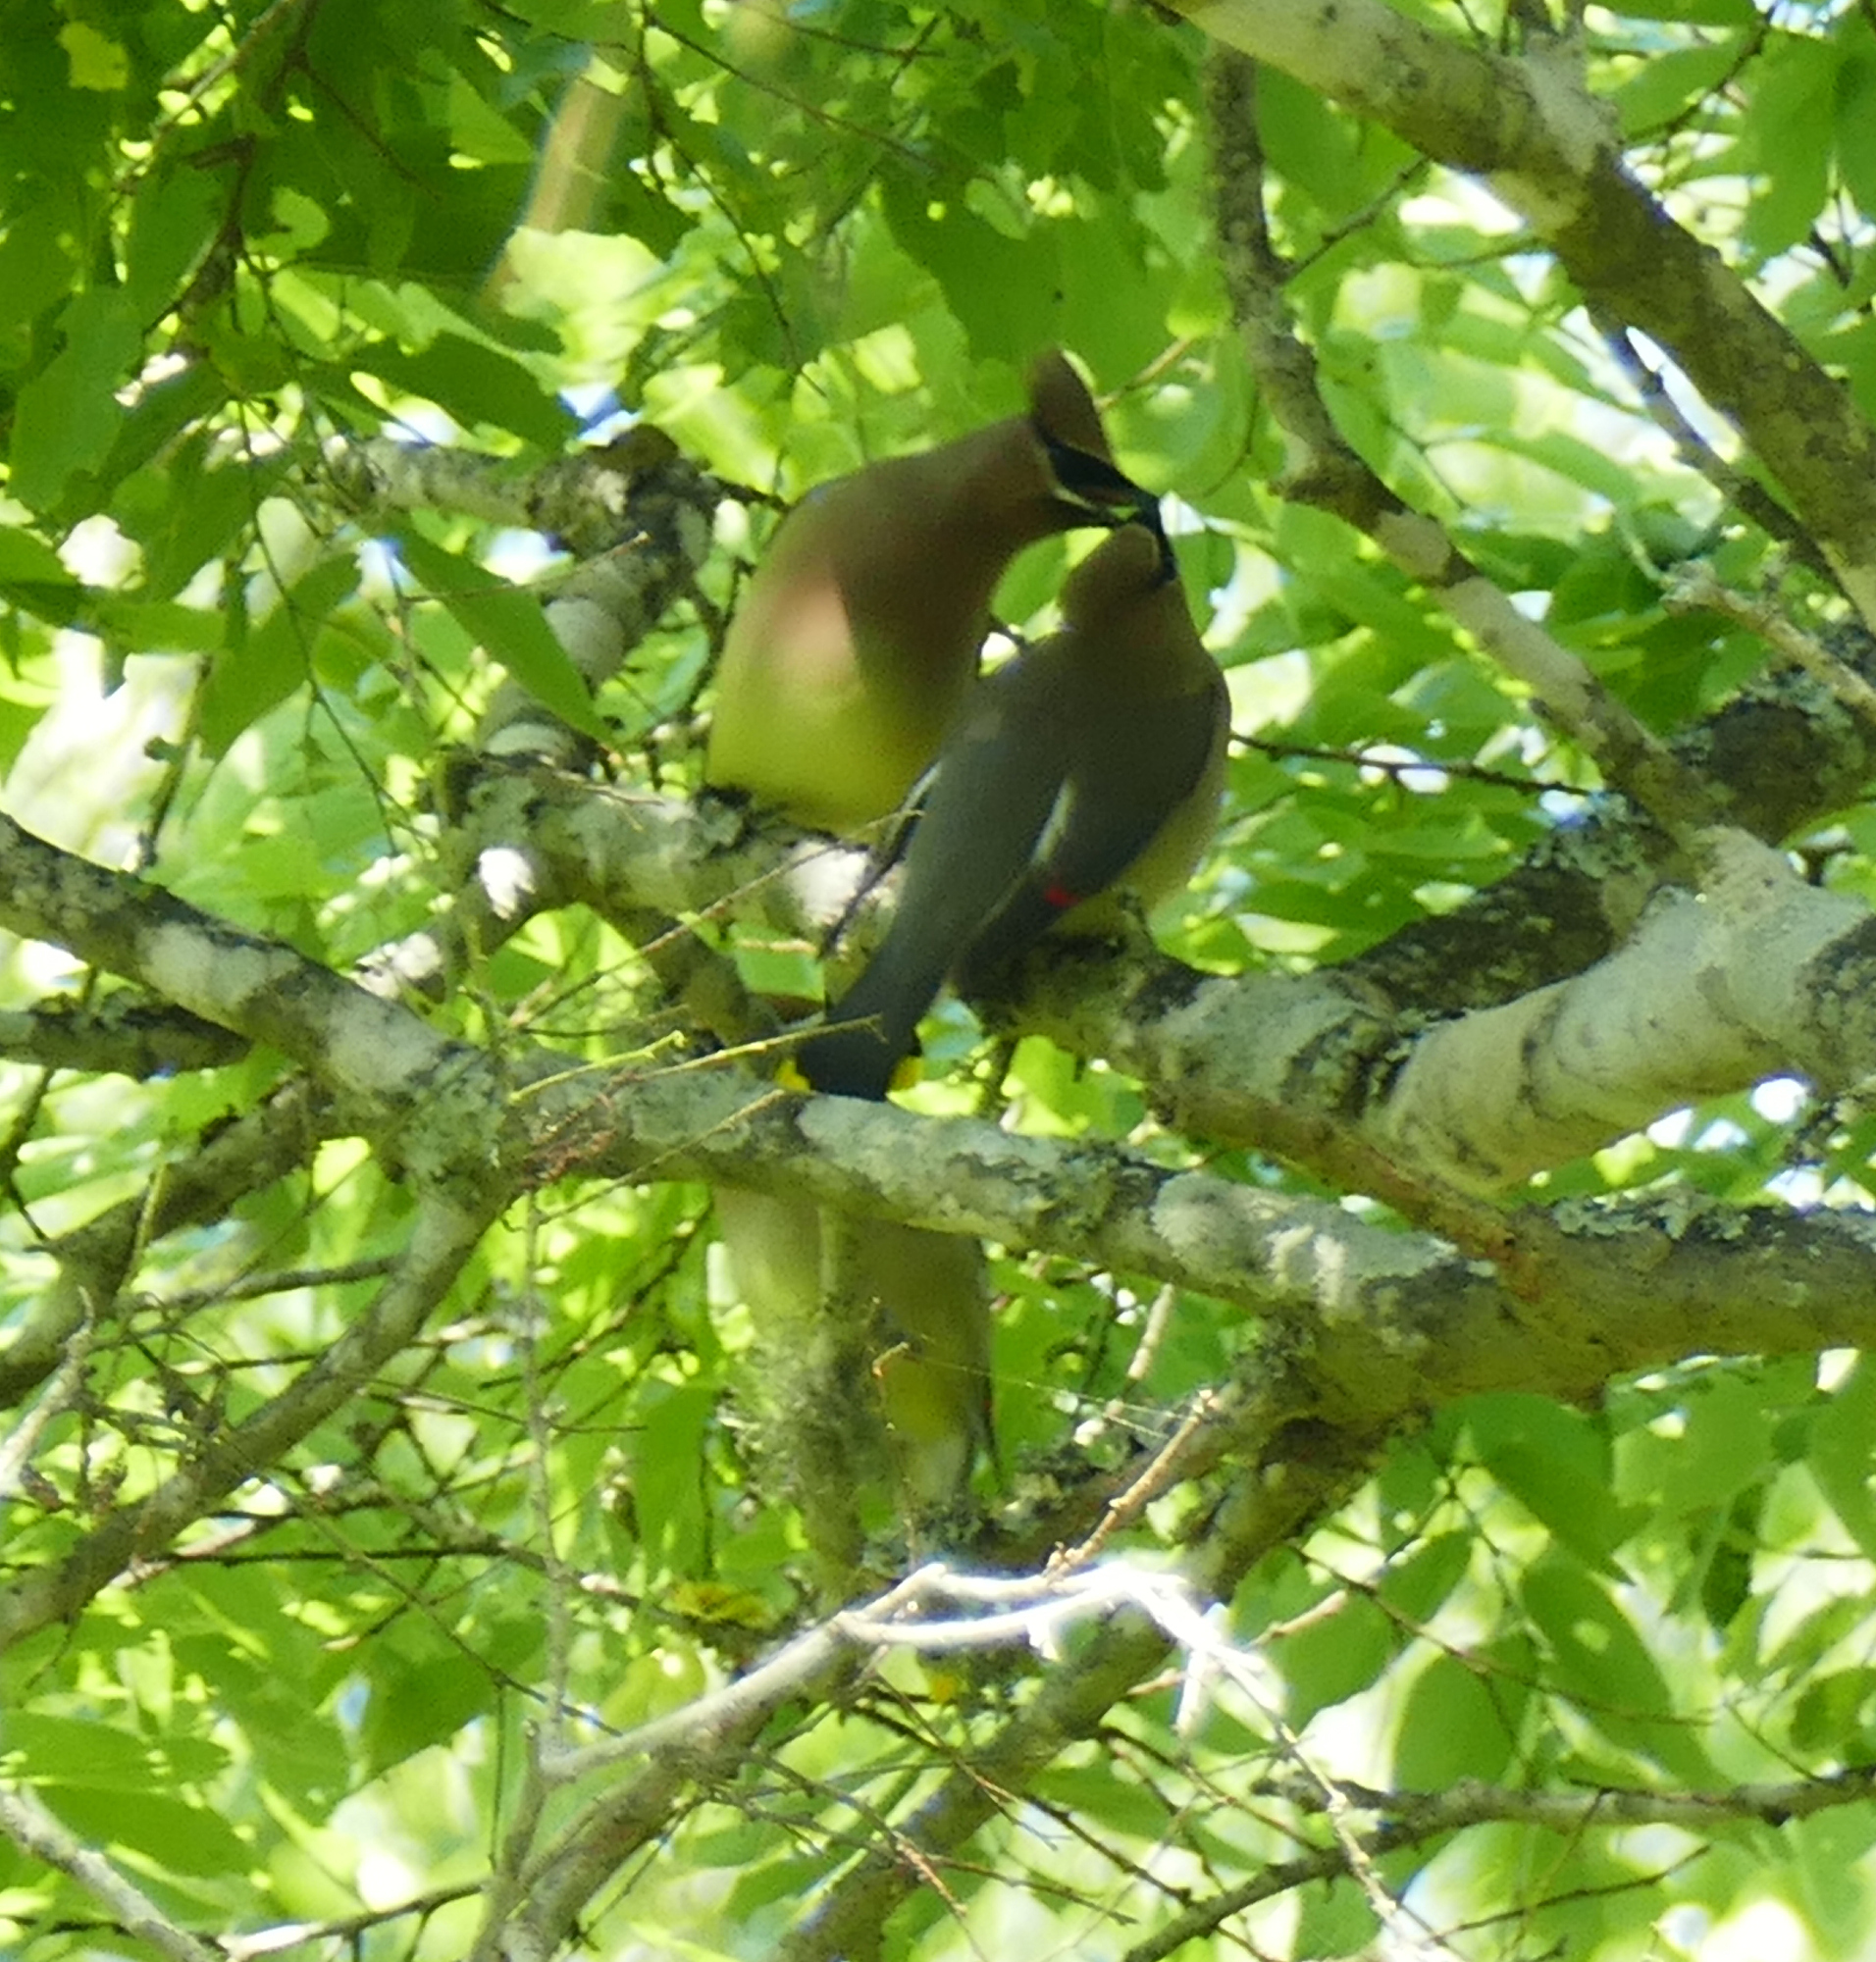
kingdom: Animalia
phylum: Chordata
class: Aves
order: Passeriformes
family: Bombycillidae
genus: Bombycilla
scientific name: Bombycilla cedrorum
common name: Cedar waxwing
